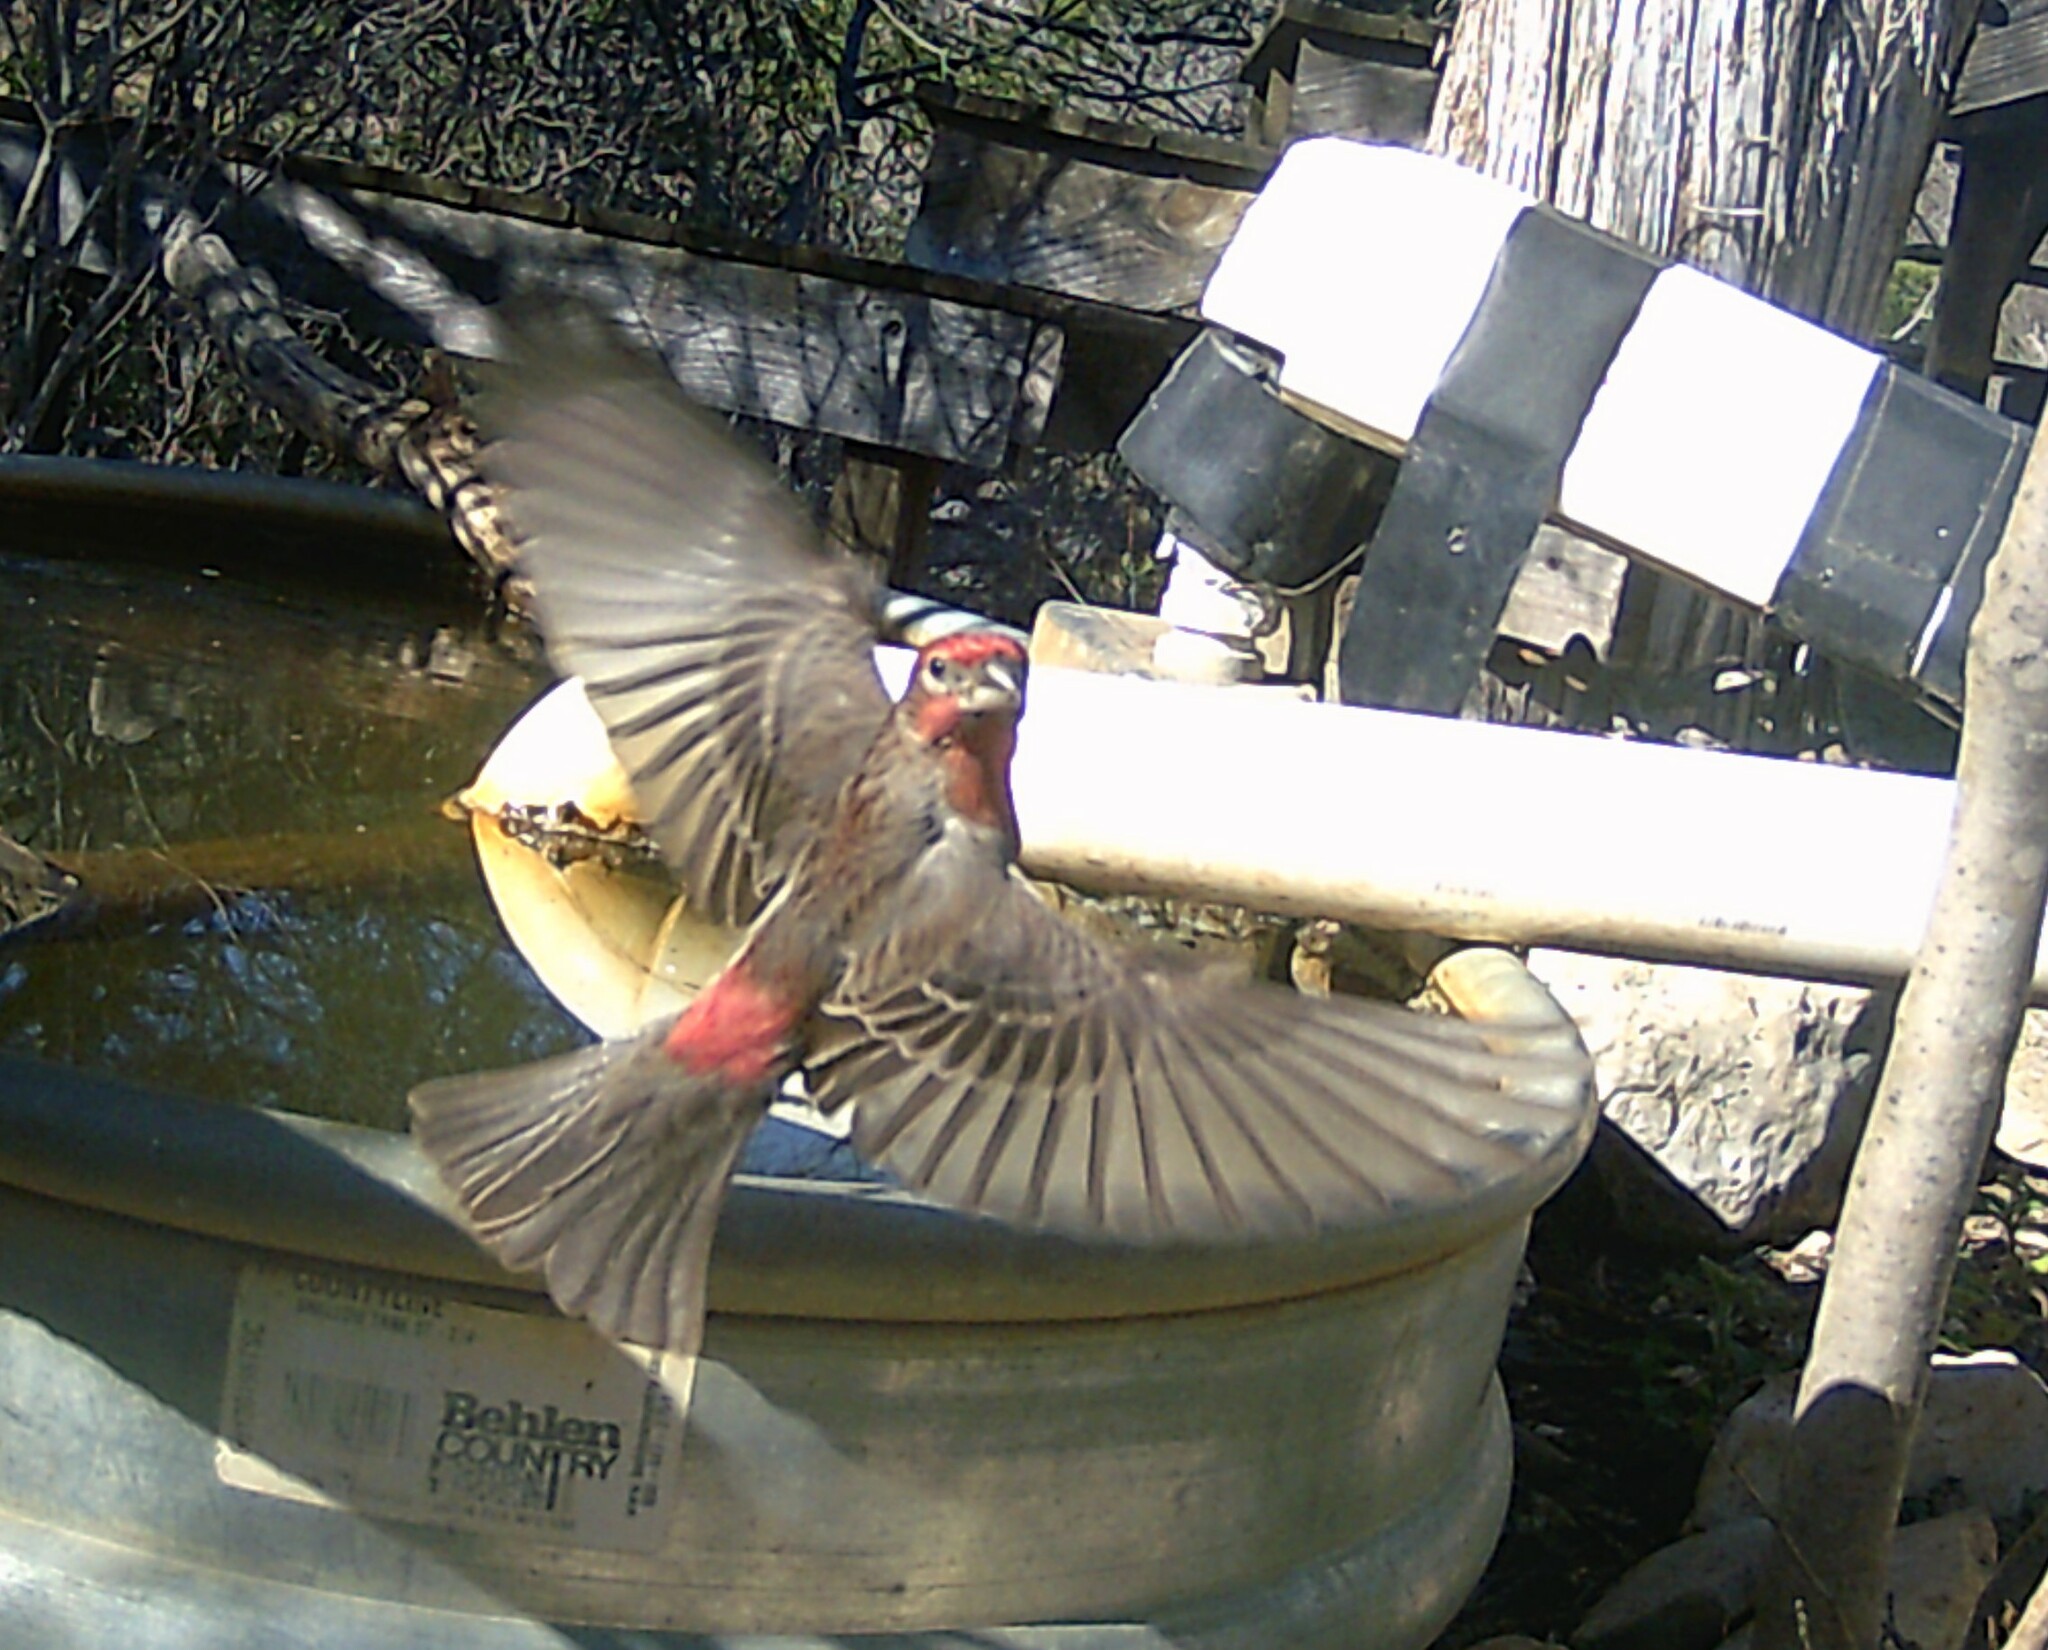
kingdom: Animalia
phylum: Chordata
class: Aves
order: Passeriformes
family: Fringillidae
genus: Haemorhous
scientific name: Haemorhous mexicanus
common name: House finch
